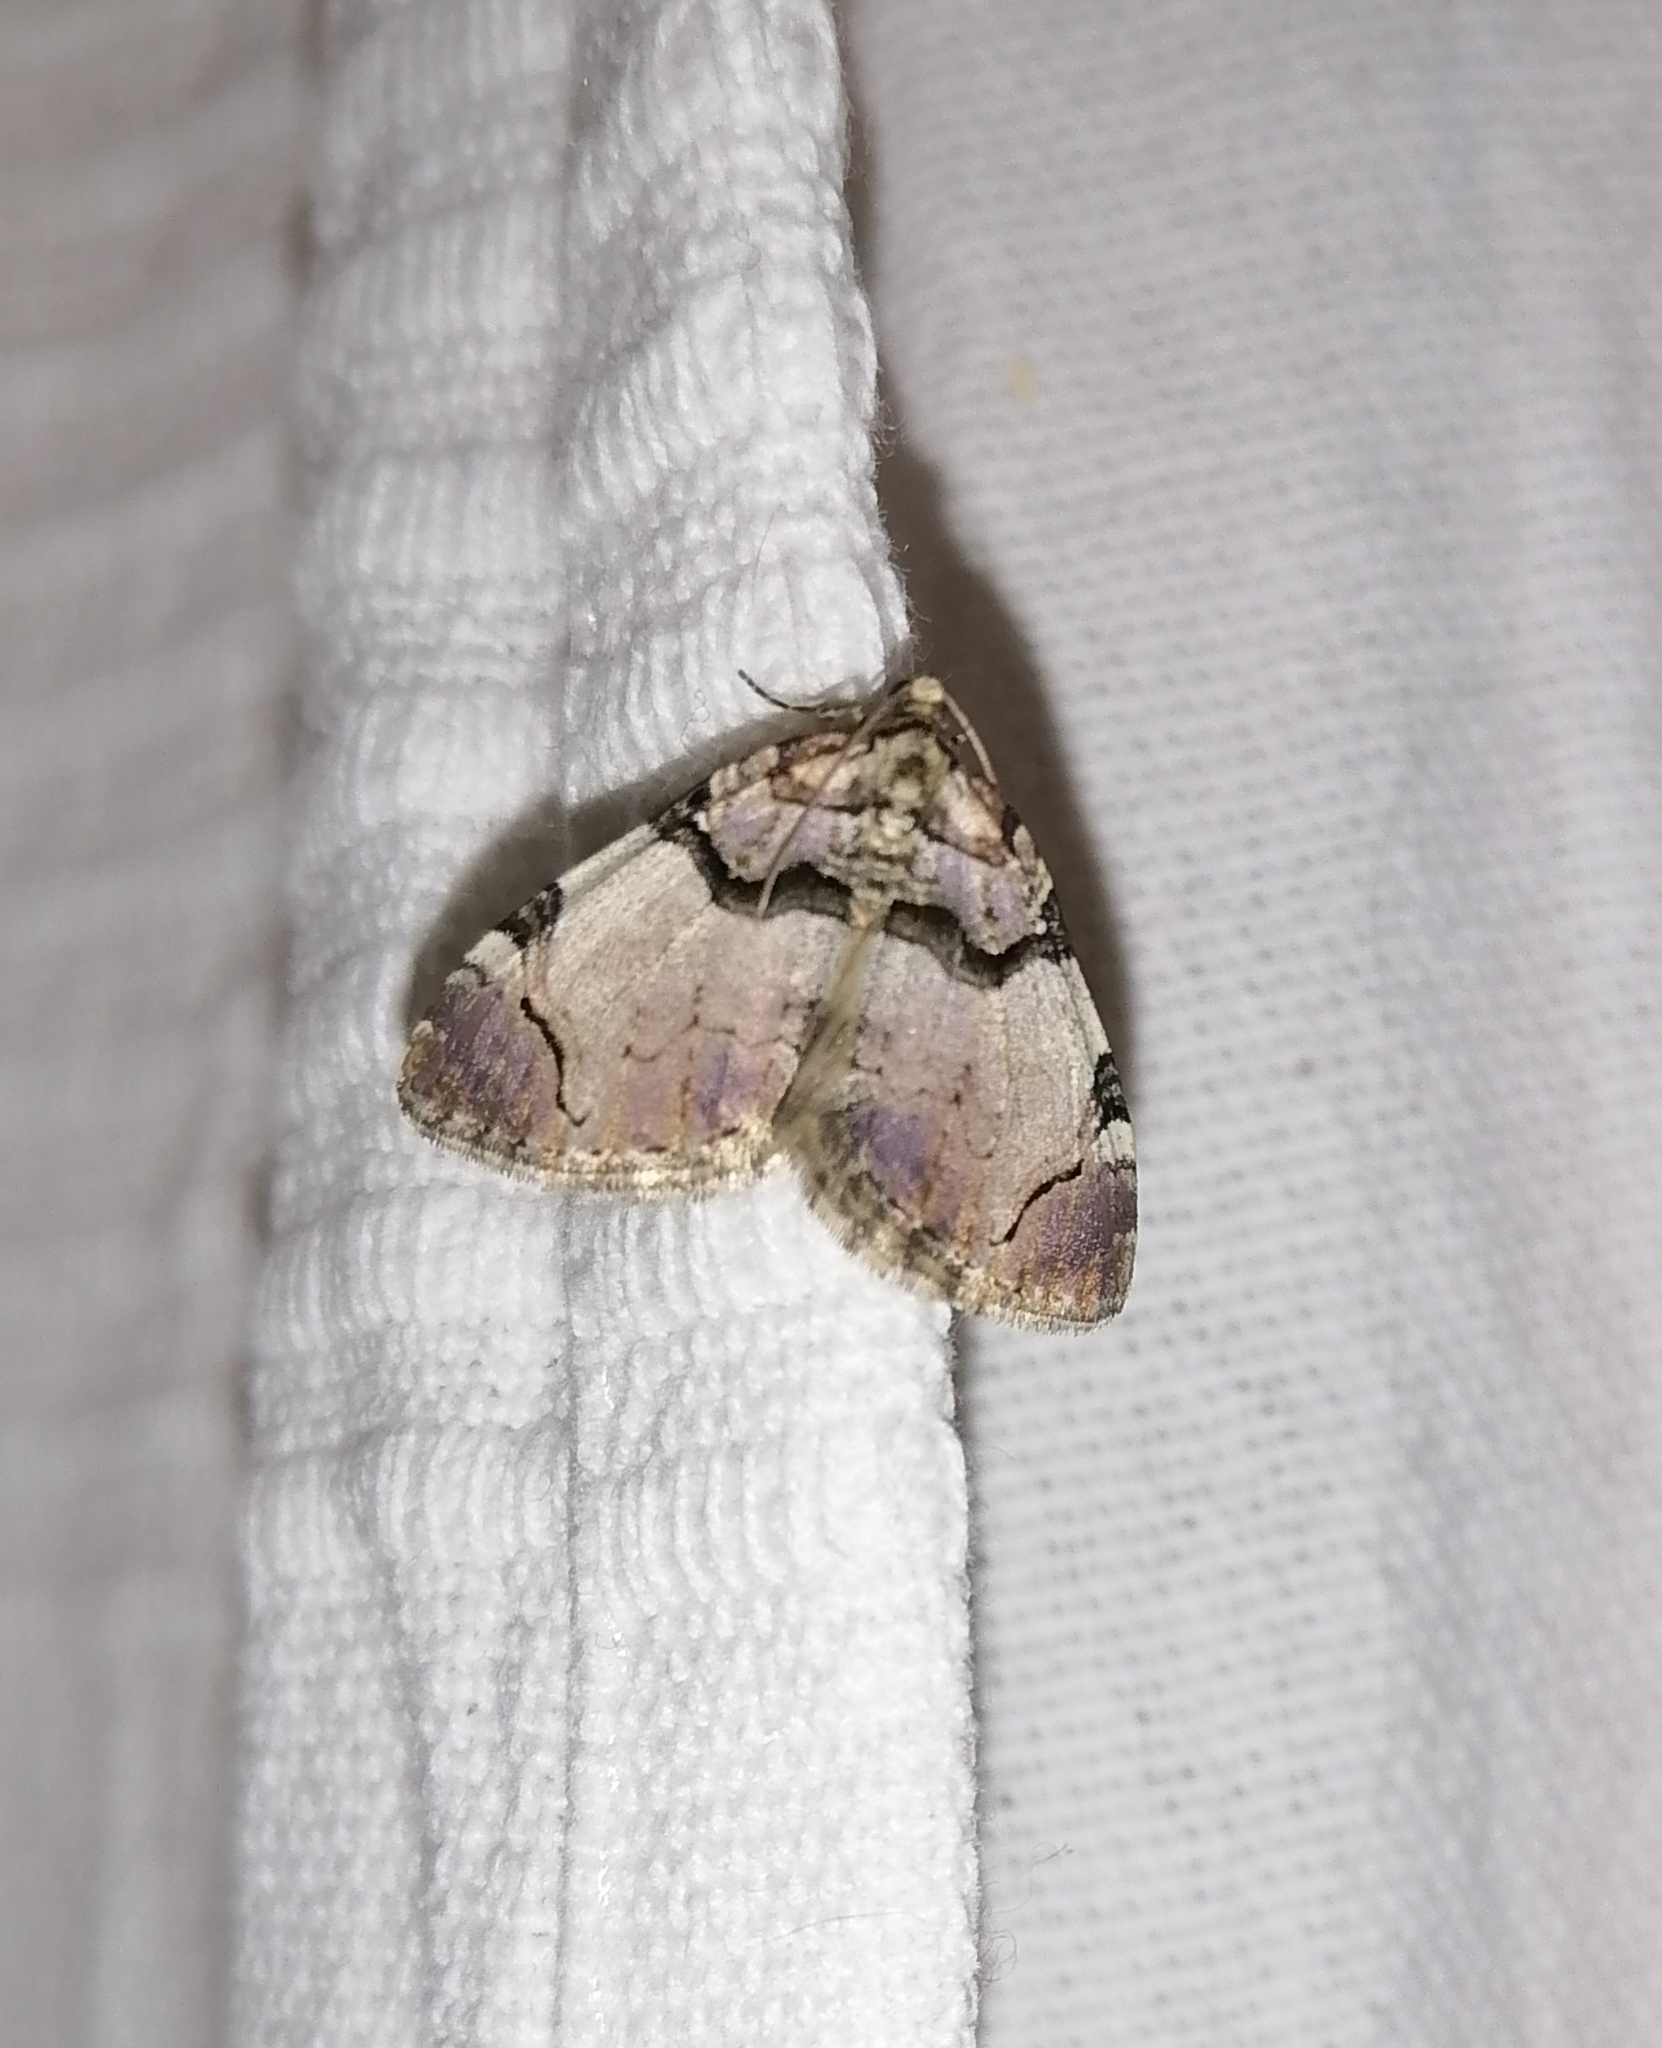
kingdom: Animalia
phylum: Arthropoda
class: Insecta
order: Lepidoptera
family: Geometridae
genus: Anticlea
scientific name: Anticlea derivata
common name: Streamer
